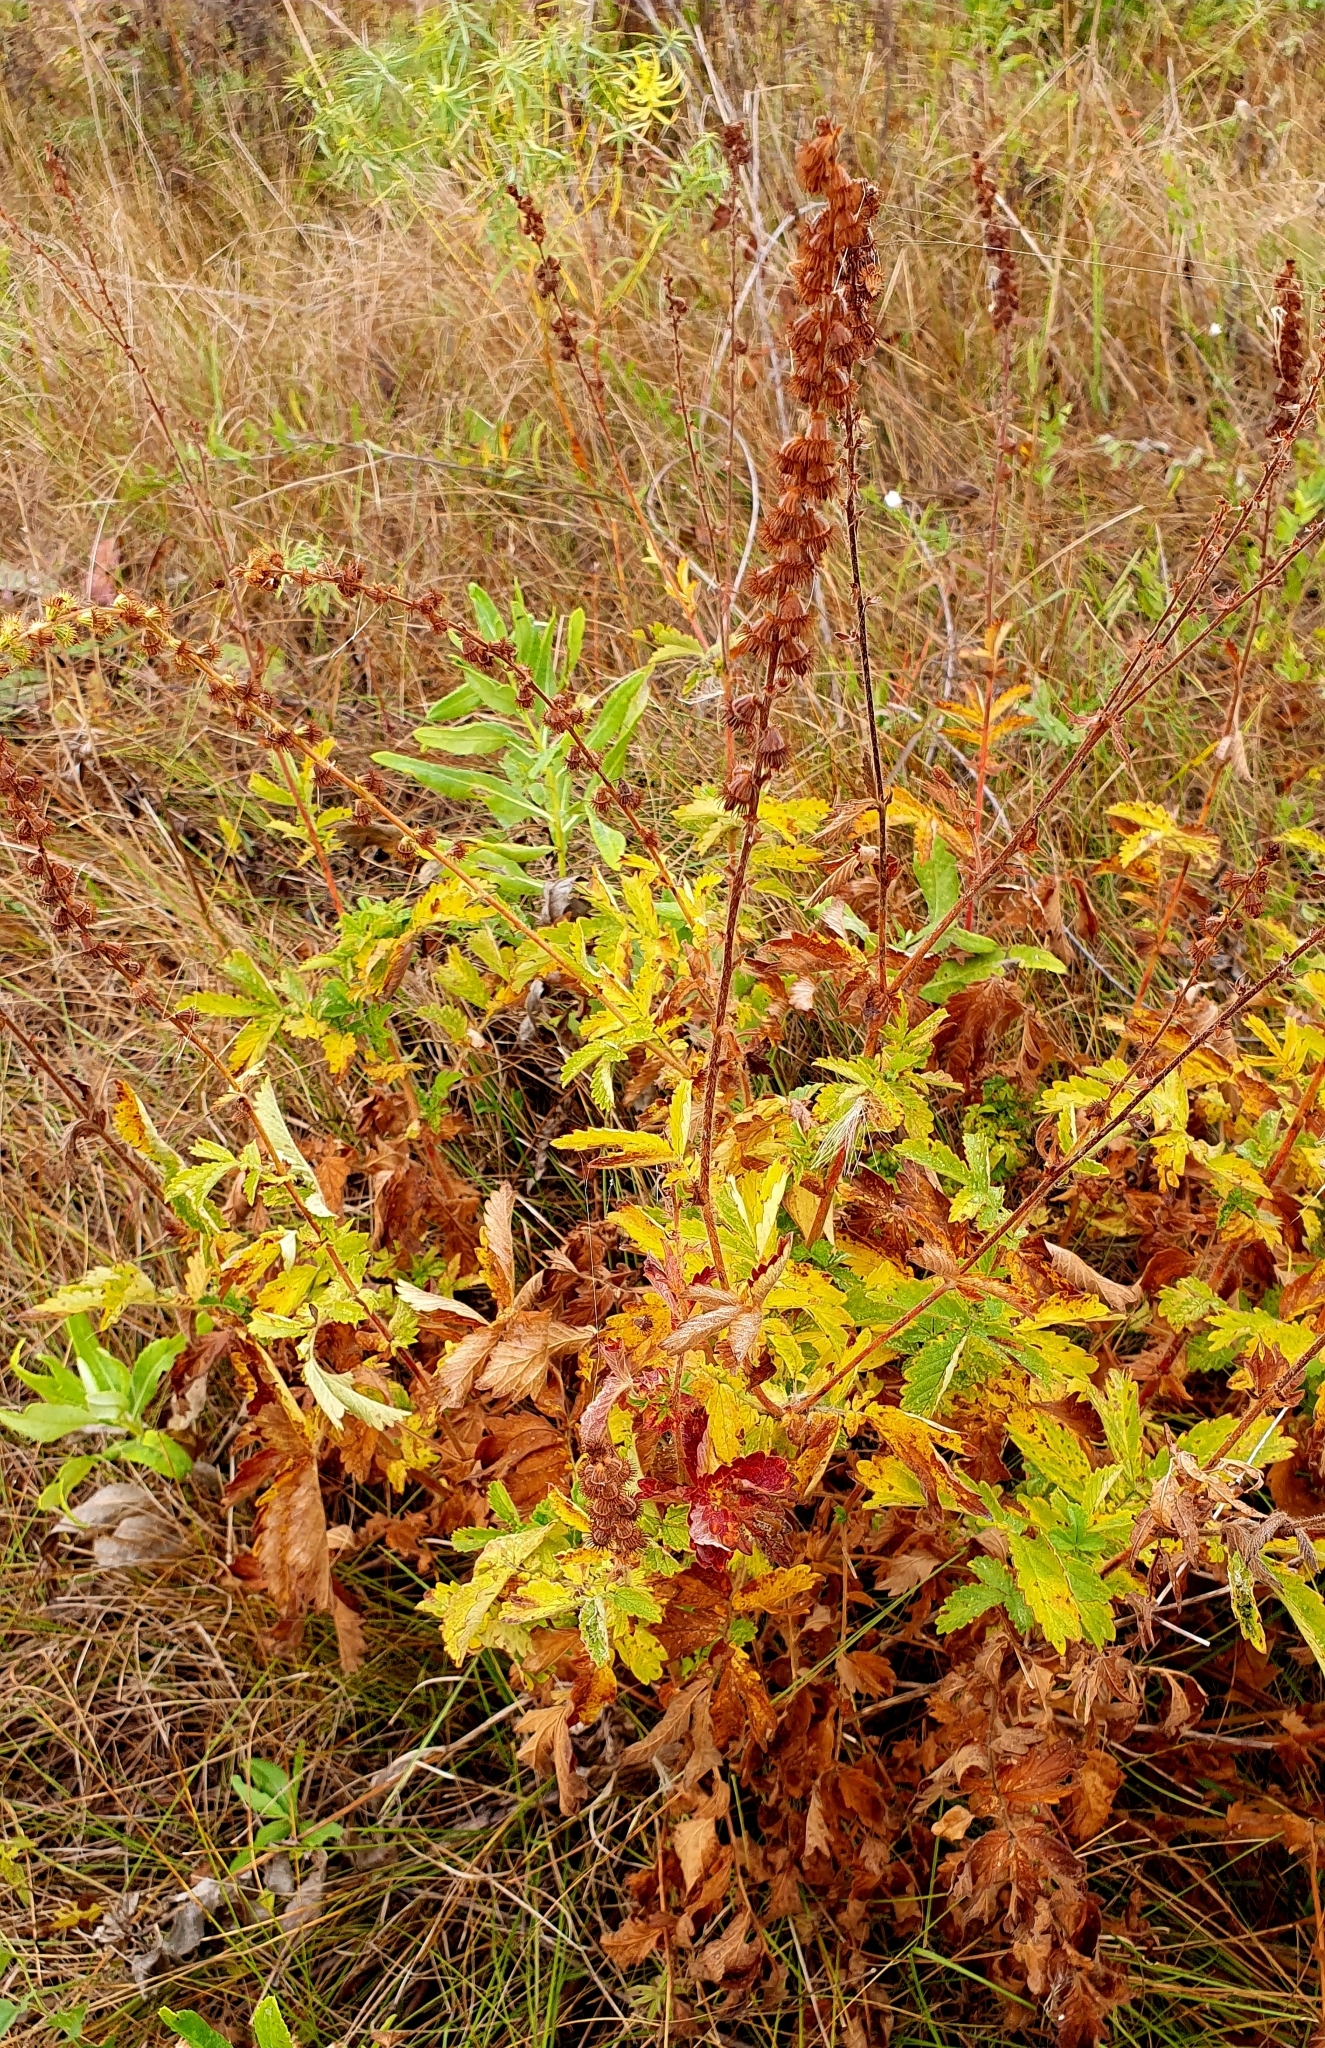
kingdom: Plantae
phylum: Tracheophyta
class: Magnoliopsida
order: Rosales
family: Rosaceae
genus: Agrimonia
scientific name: Agrimonia eupatoria
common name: Agrimony
